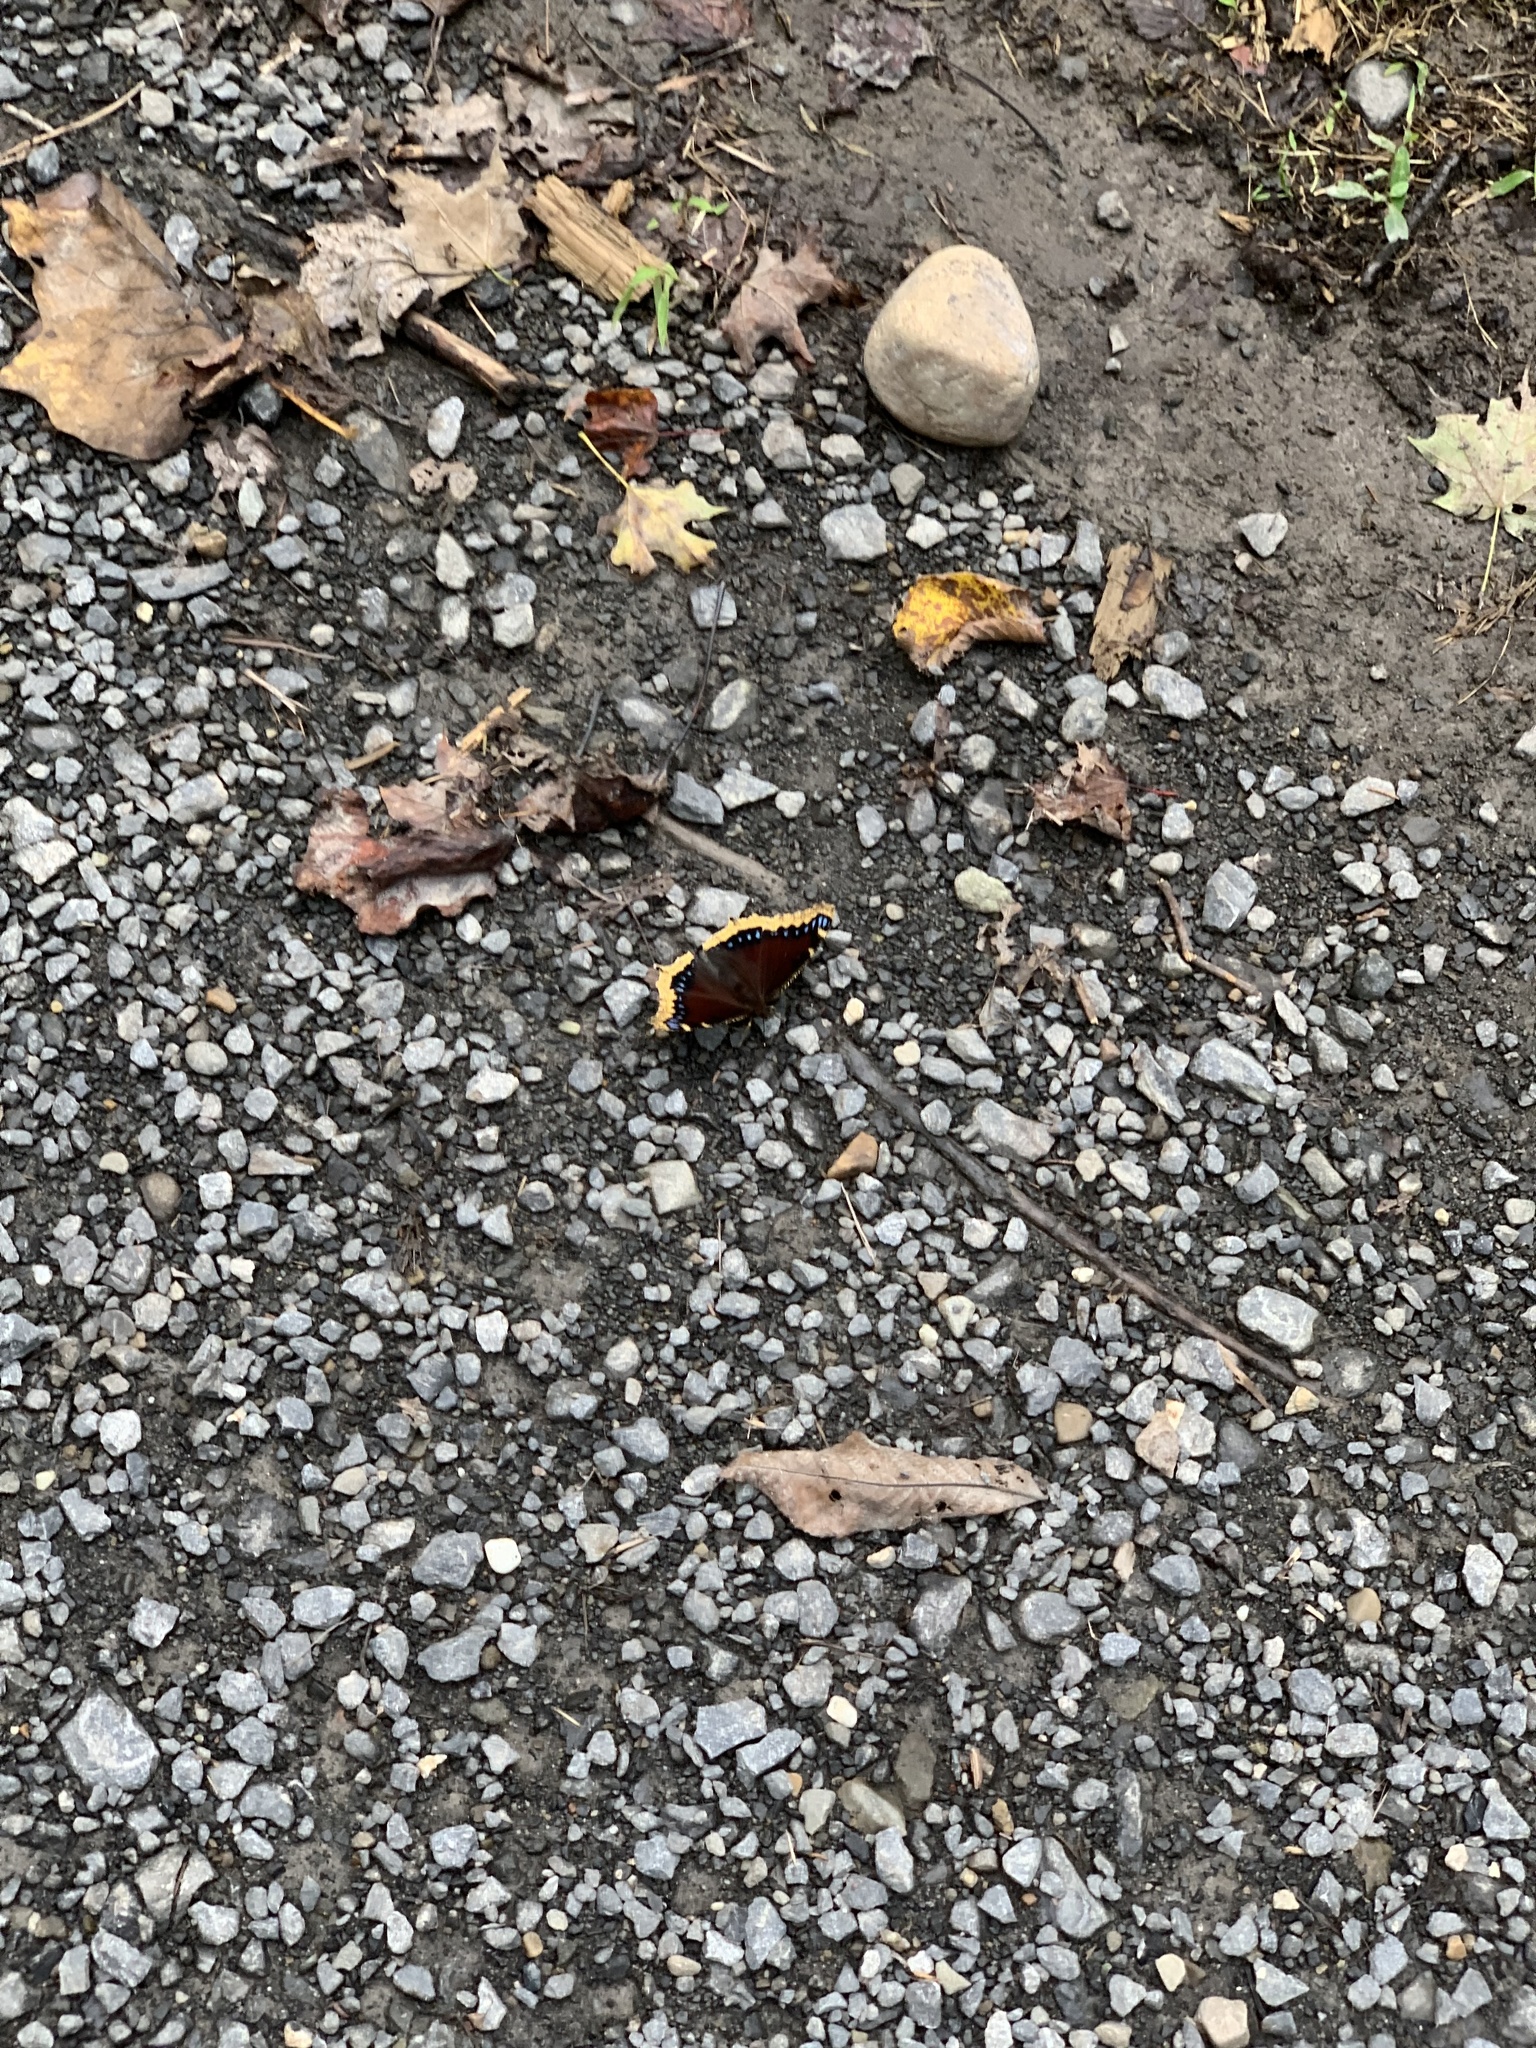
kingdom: Animalia
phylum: Arthropoda
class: Insecta
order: Lepidoptera
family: Nymphalidae
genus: Nymphalis
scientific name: Nymphalis antiopa
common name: Camberwell beauty
